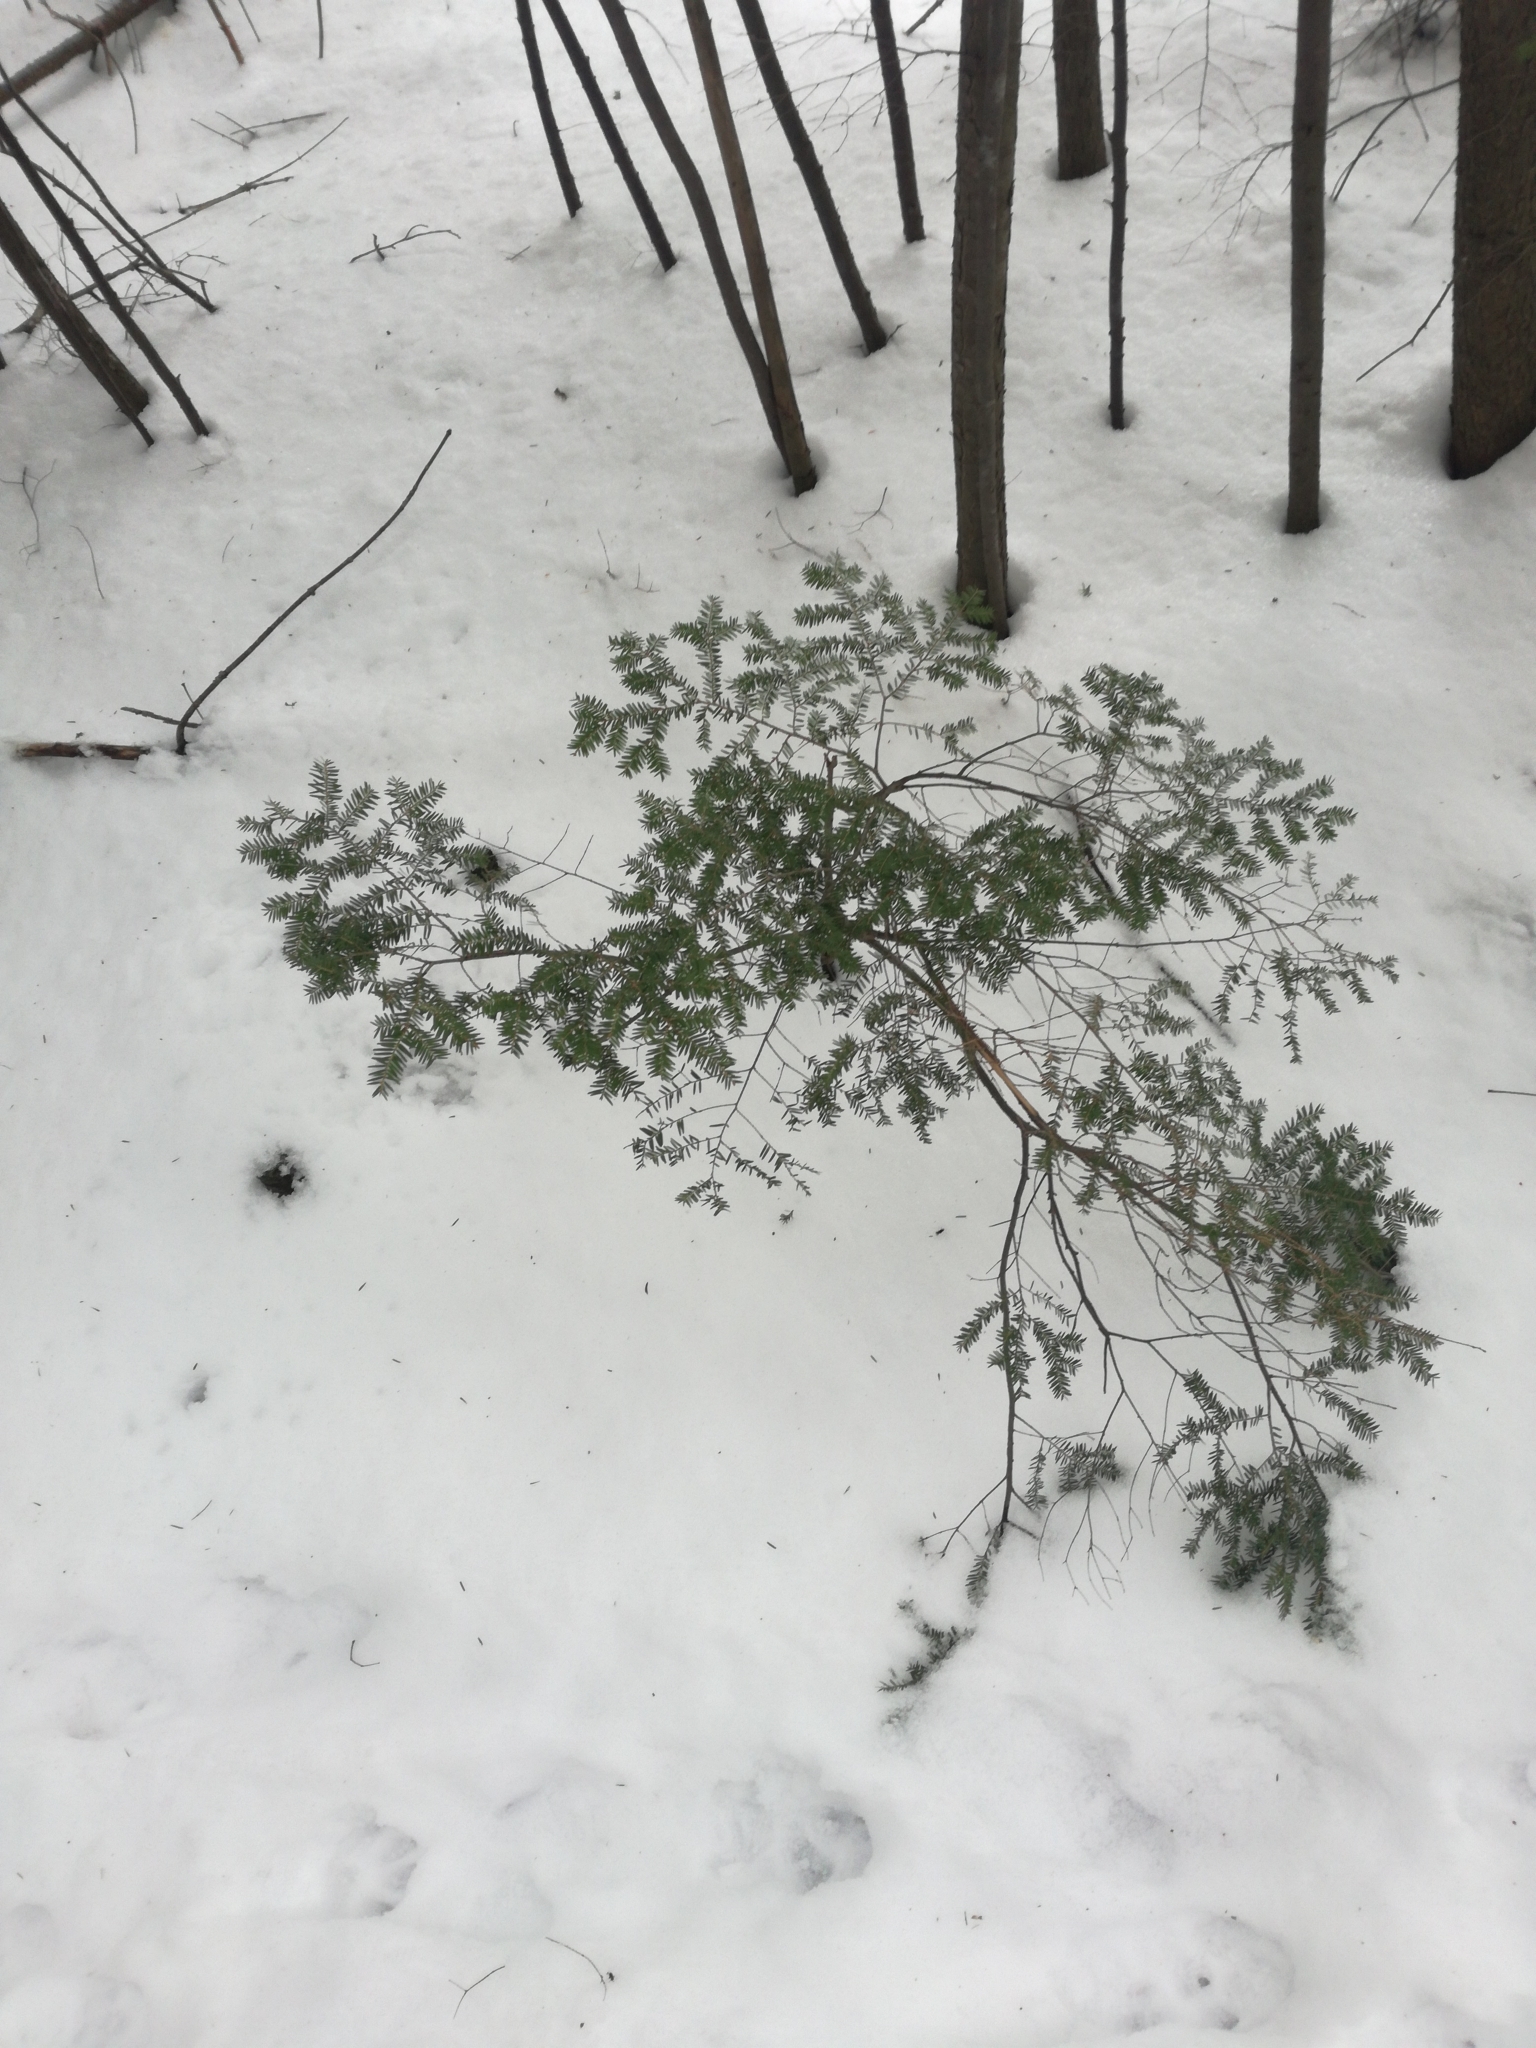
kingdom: Plantae
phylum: Tracheophyta
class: Pinopsida
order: Pinales
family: Pinaceae
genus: Tsuga
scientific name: Tsuga canadensis
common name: Eastern hemlock
